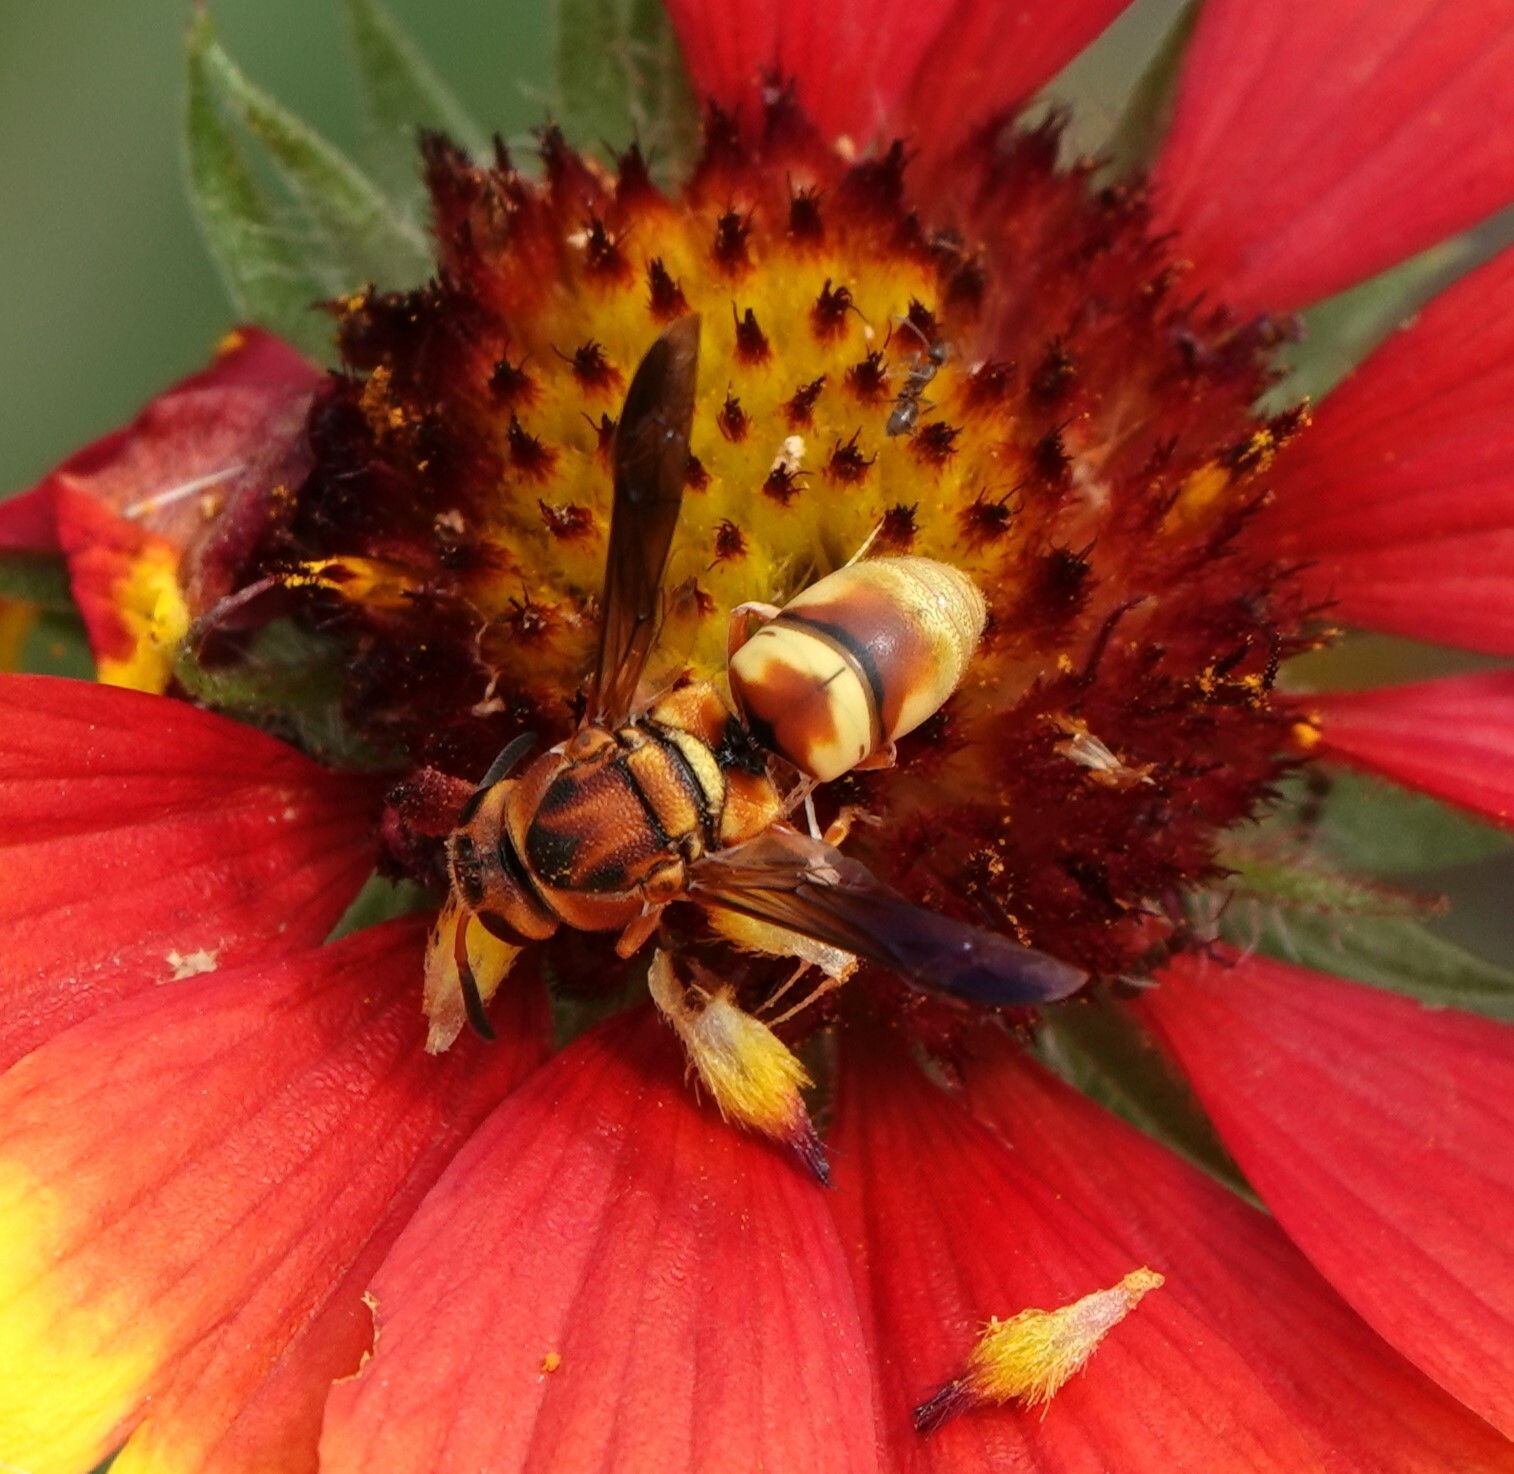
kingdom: Animalia
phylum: Arthropoda
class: Insecta
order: Hymenoptera
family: Eumenidae
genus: Euodynerus
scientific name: Euodynerus pratensis
